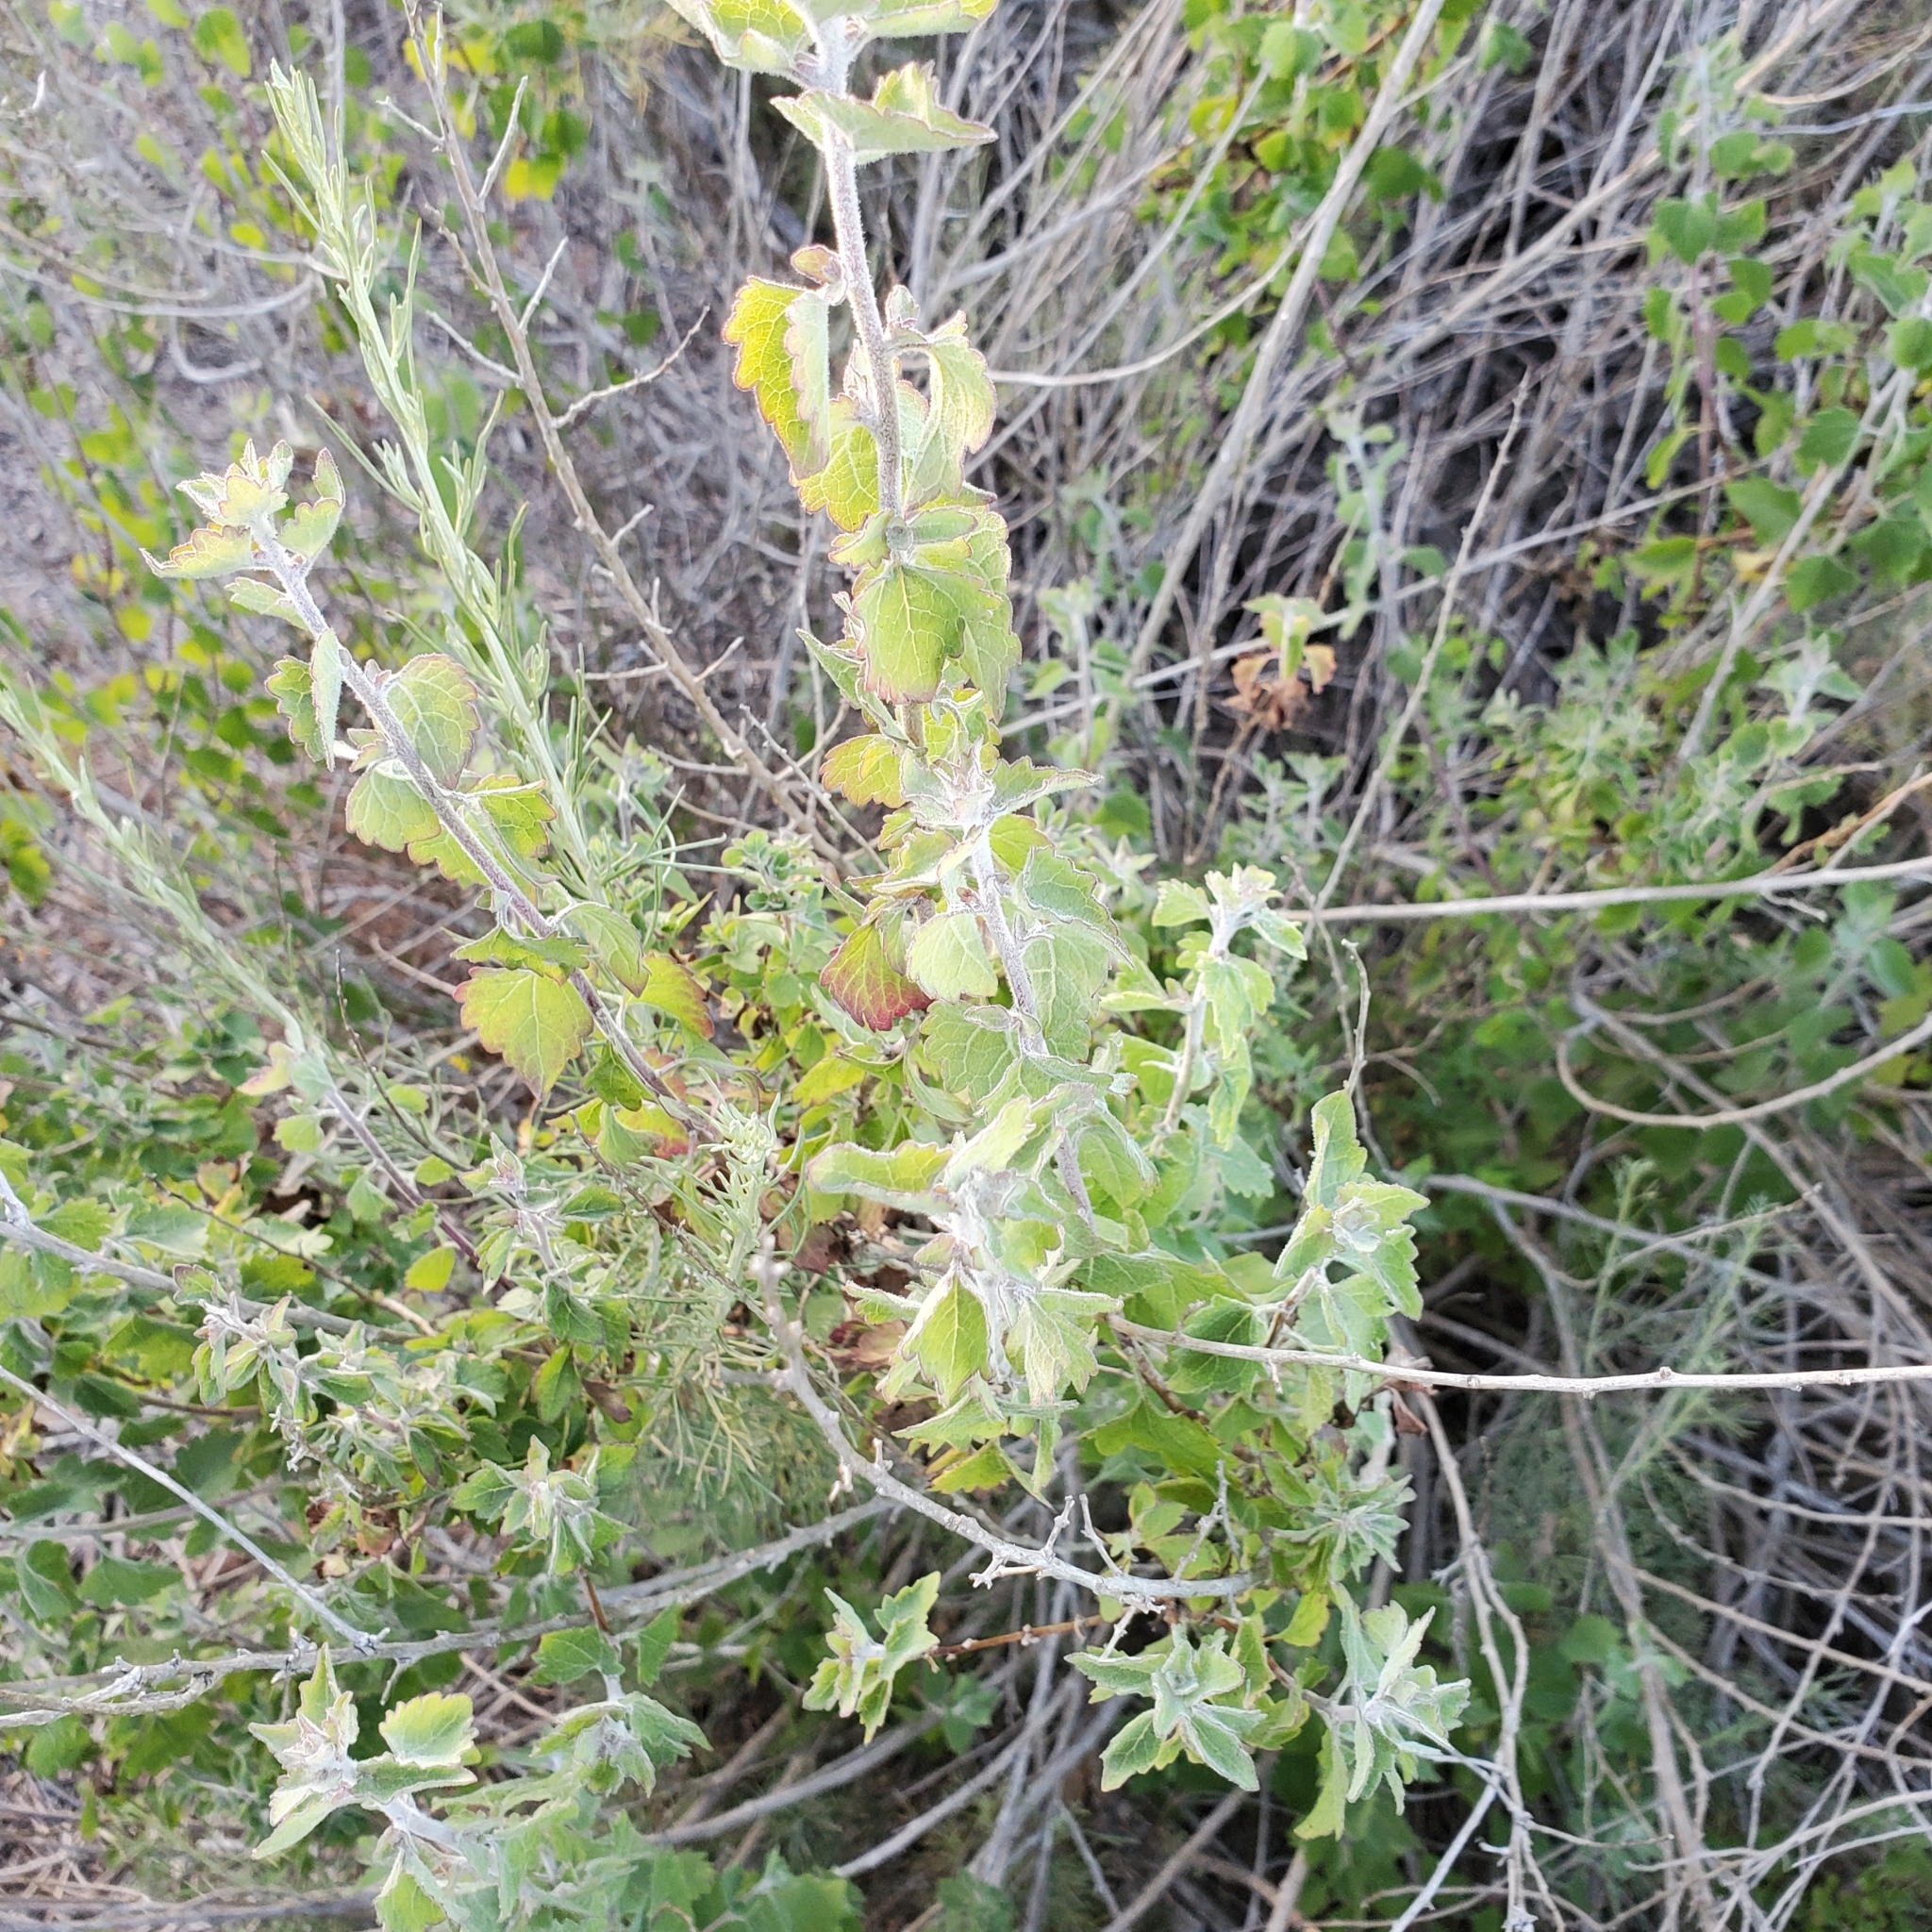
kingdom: Plantae
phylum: Tracheophyta
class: Magnoliopsida
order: Asterales
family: Asteraceae
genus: Brickellia
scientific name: Brickellia californica
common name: California brickellbush
